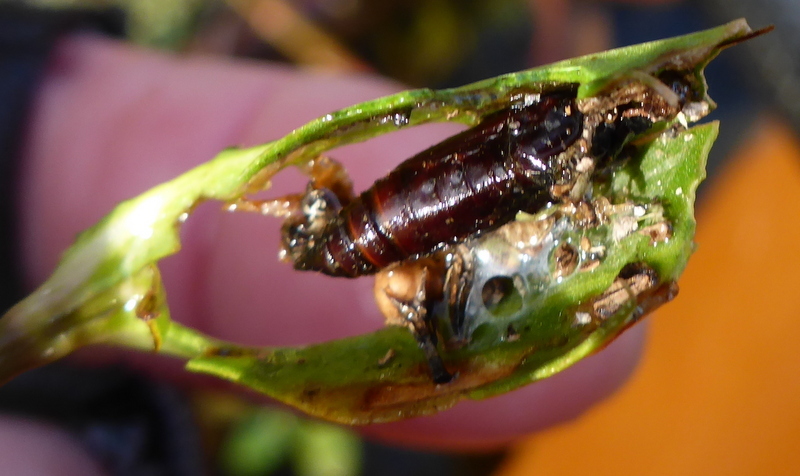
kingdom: Animalia
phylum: Arthropoda
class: Insecta
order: Lepidoptera
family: Crambidae
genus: Herpetogramma
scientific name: Herpetogramma bipunctalis
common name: Southern beet webworm
